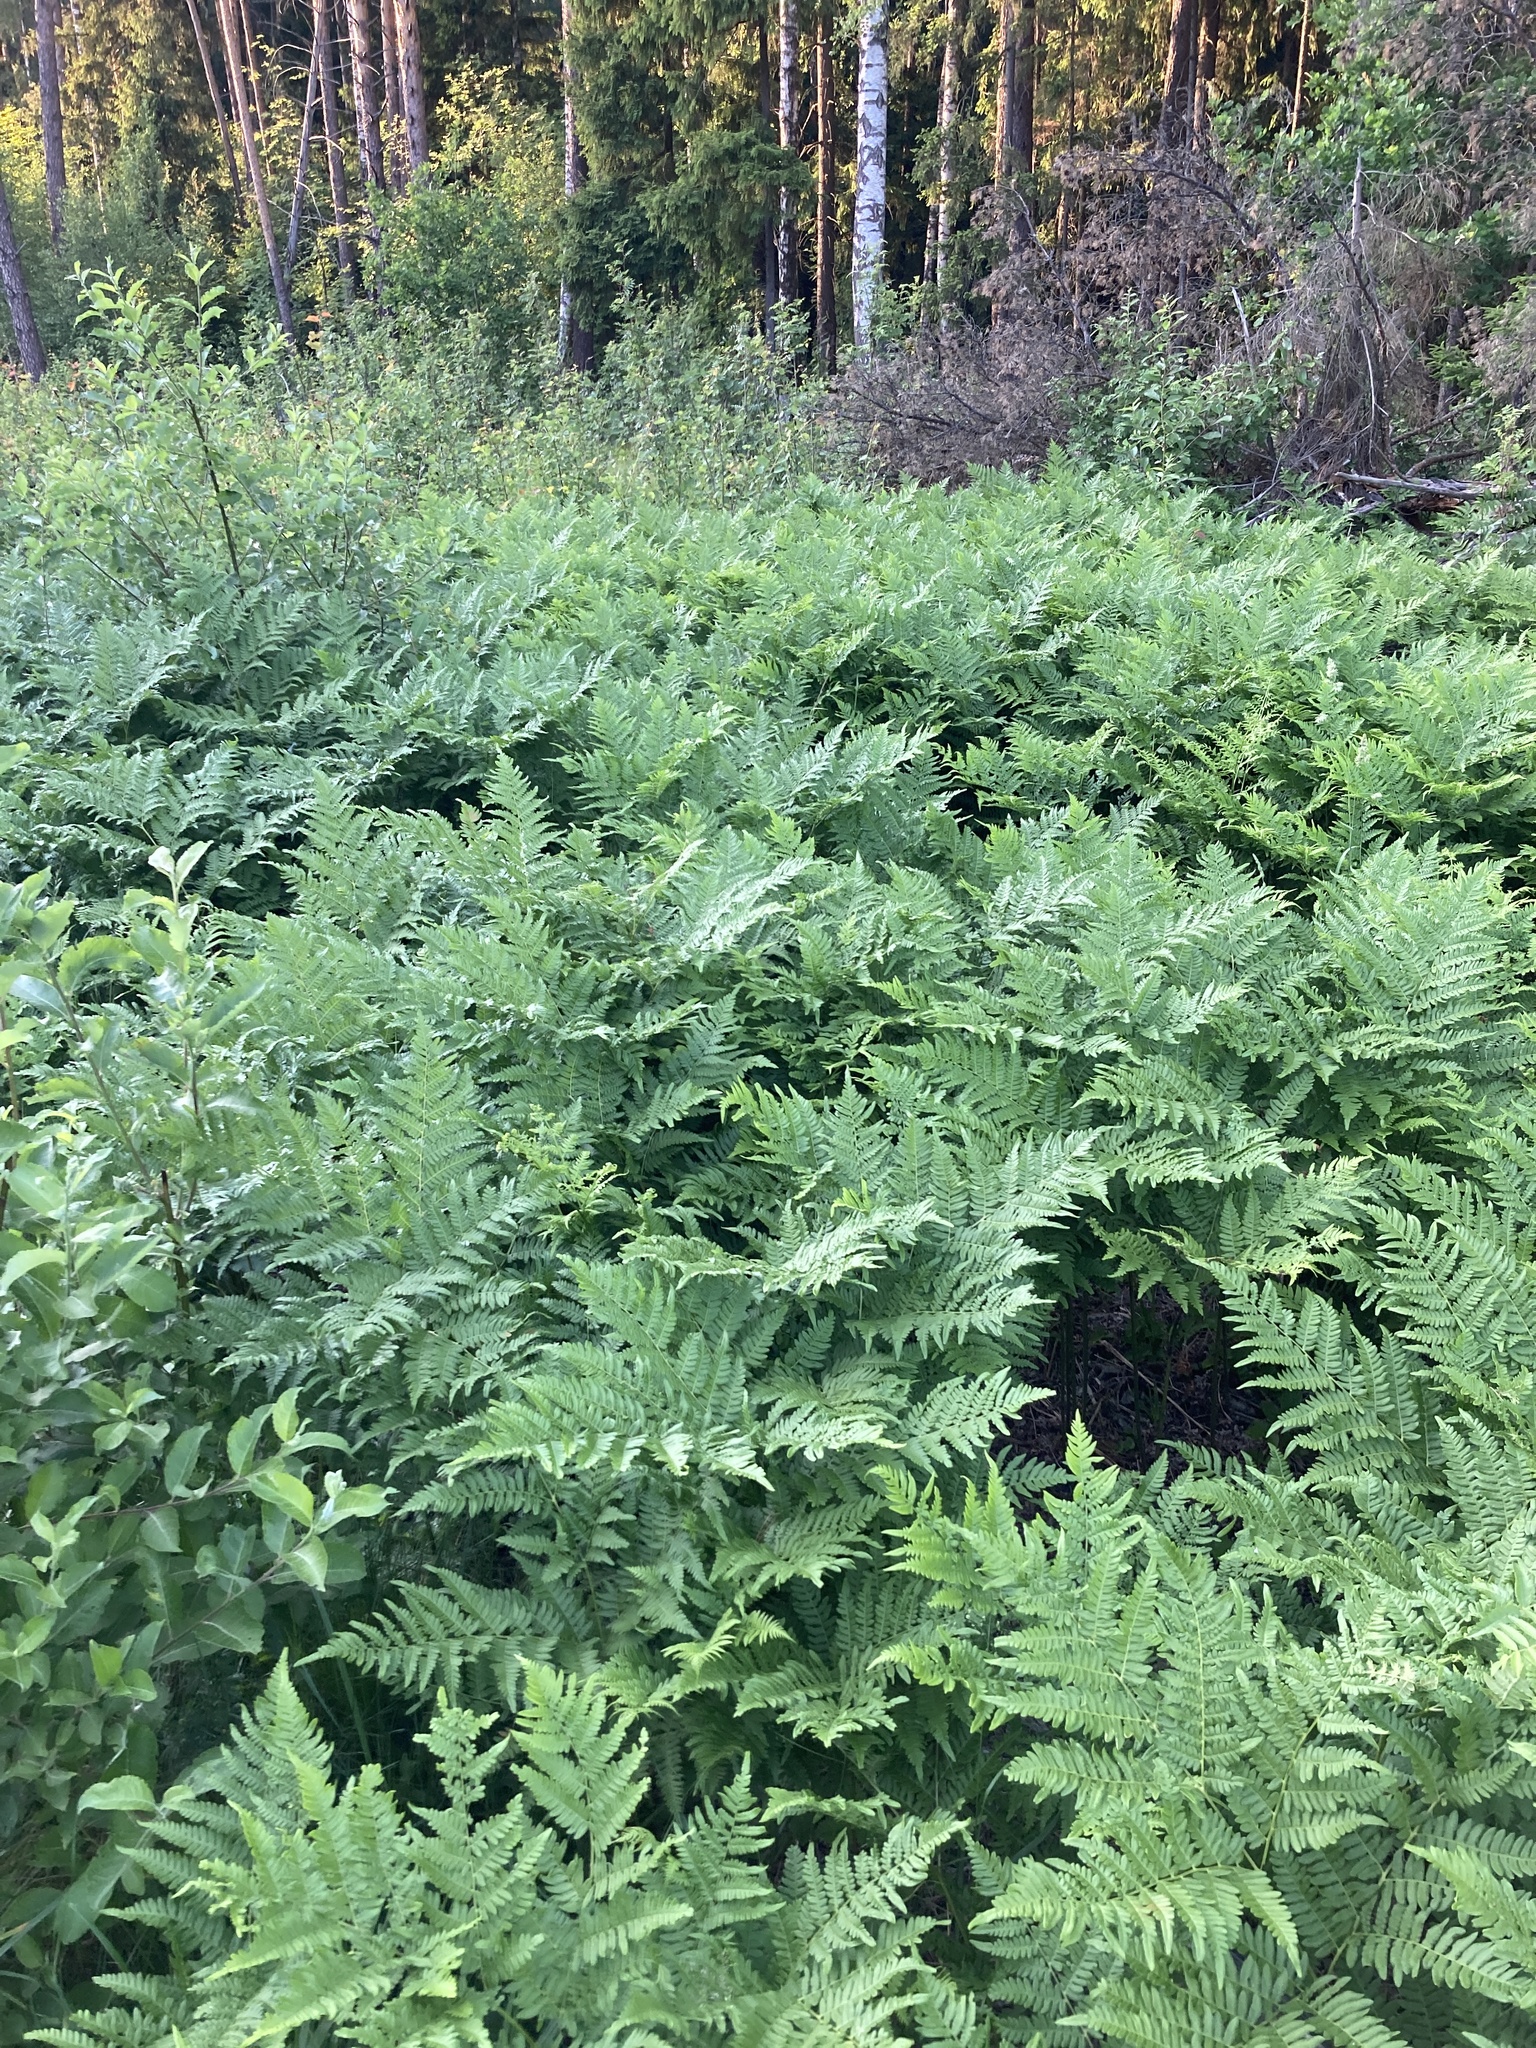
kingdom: Plantae
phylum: Tracheophyta
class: Polypodiopsida
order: Polypodiales
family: Dennstaedtiaceae
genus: Pteridium
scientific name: Pteridium aquilinum
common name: Bracken
